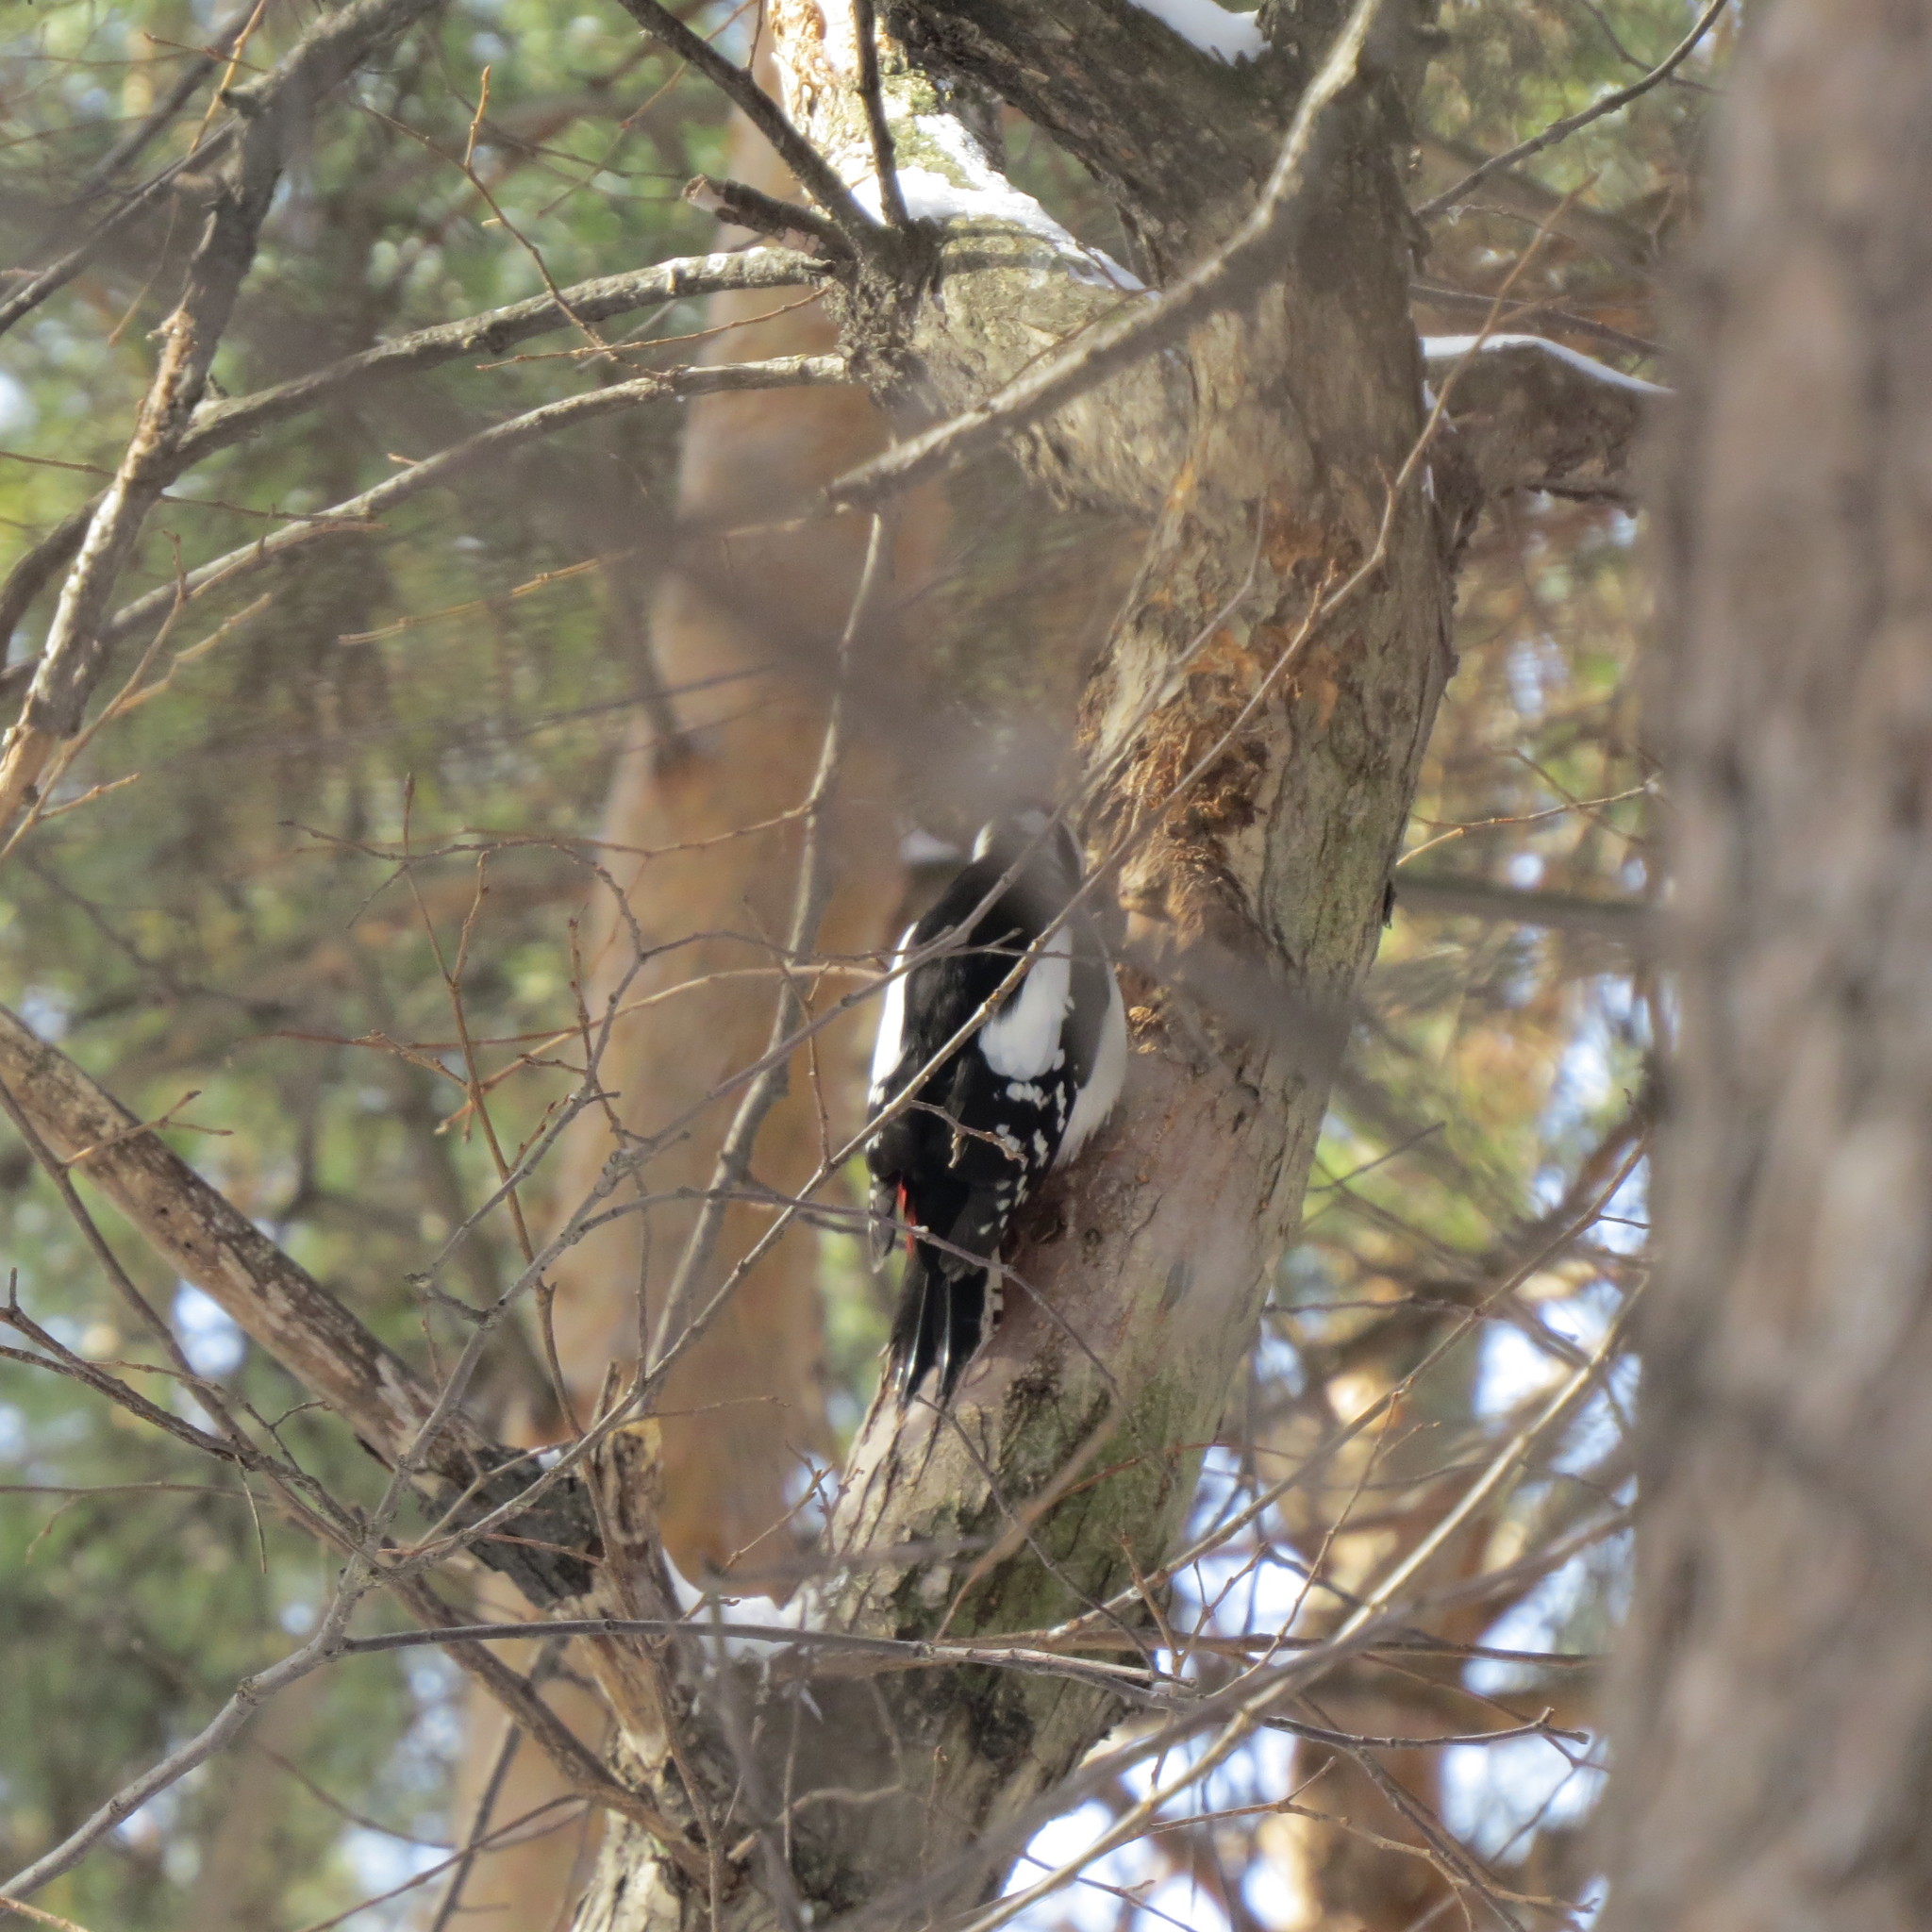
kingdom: Animalia
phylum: Chordata
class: Aves
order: Piciformes
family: Picidae
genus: Dendrocopos
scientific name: Dendrocopos major
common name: Great spotted woodpecker
